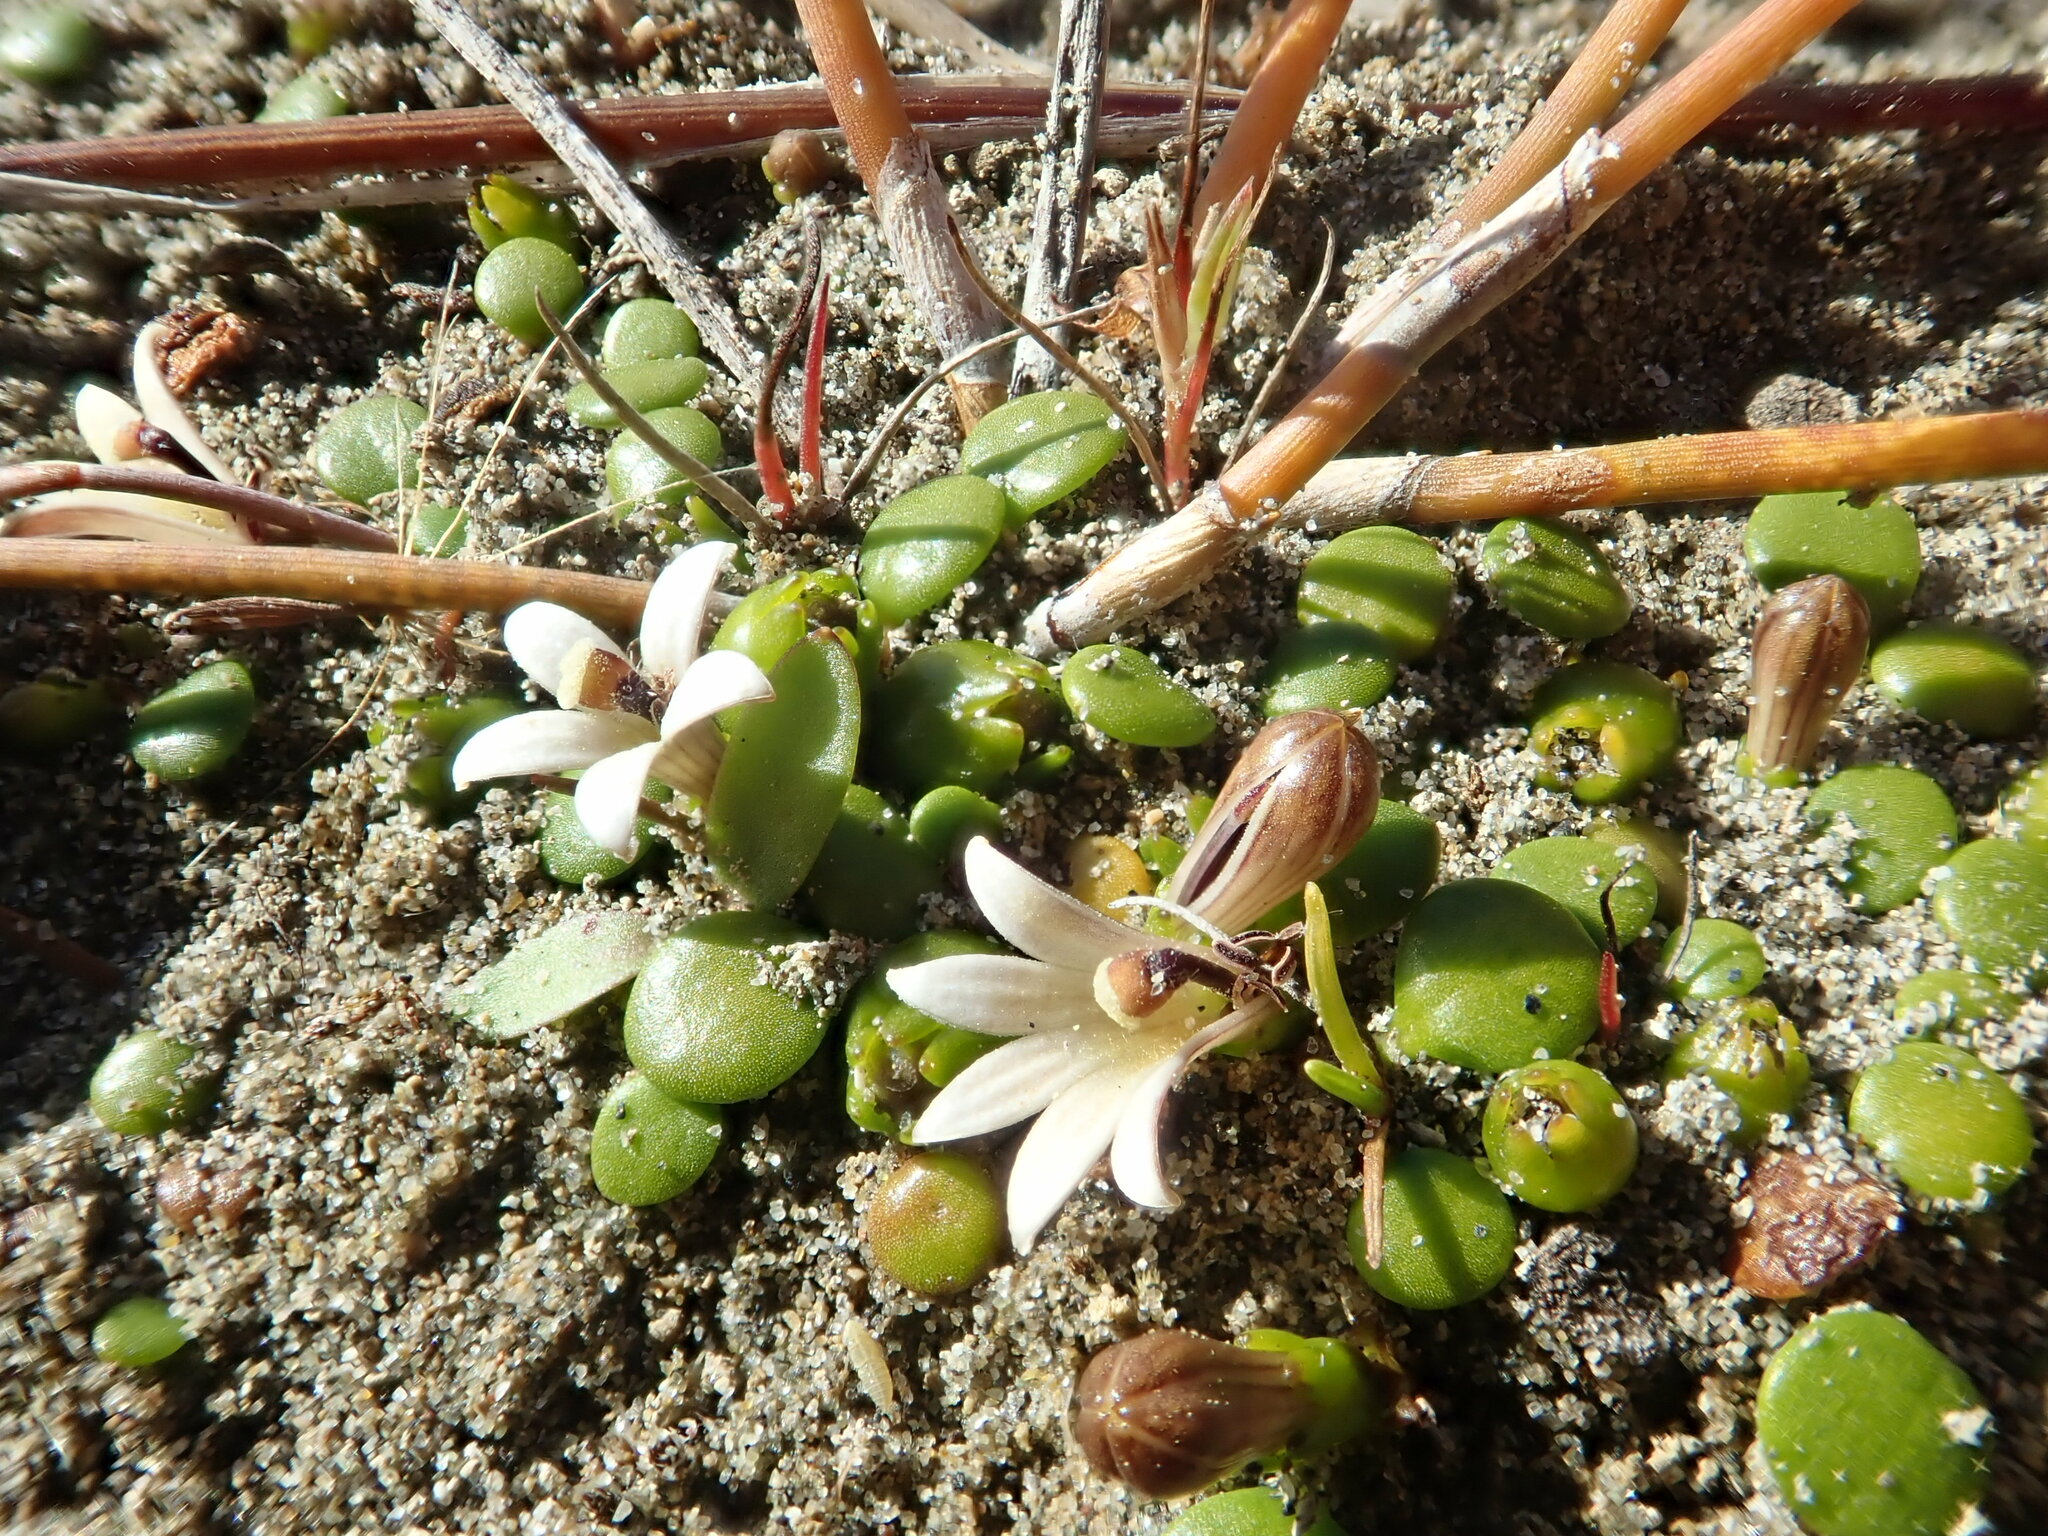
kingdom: Plantae
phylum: Tracheophyta
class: Magnoliopsida
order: Asterales
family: Goodeniaceae
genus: Goodenia
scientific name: Goodenia heenanii
